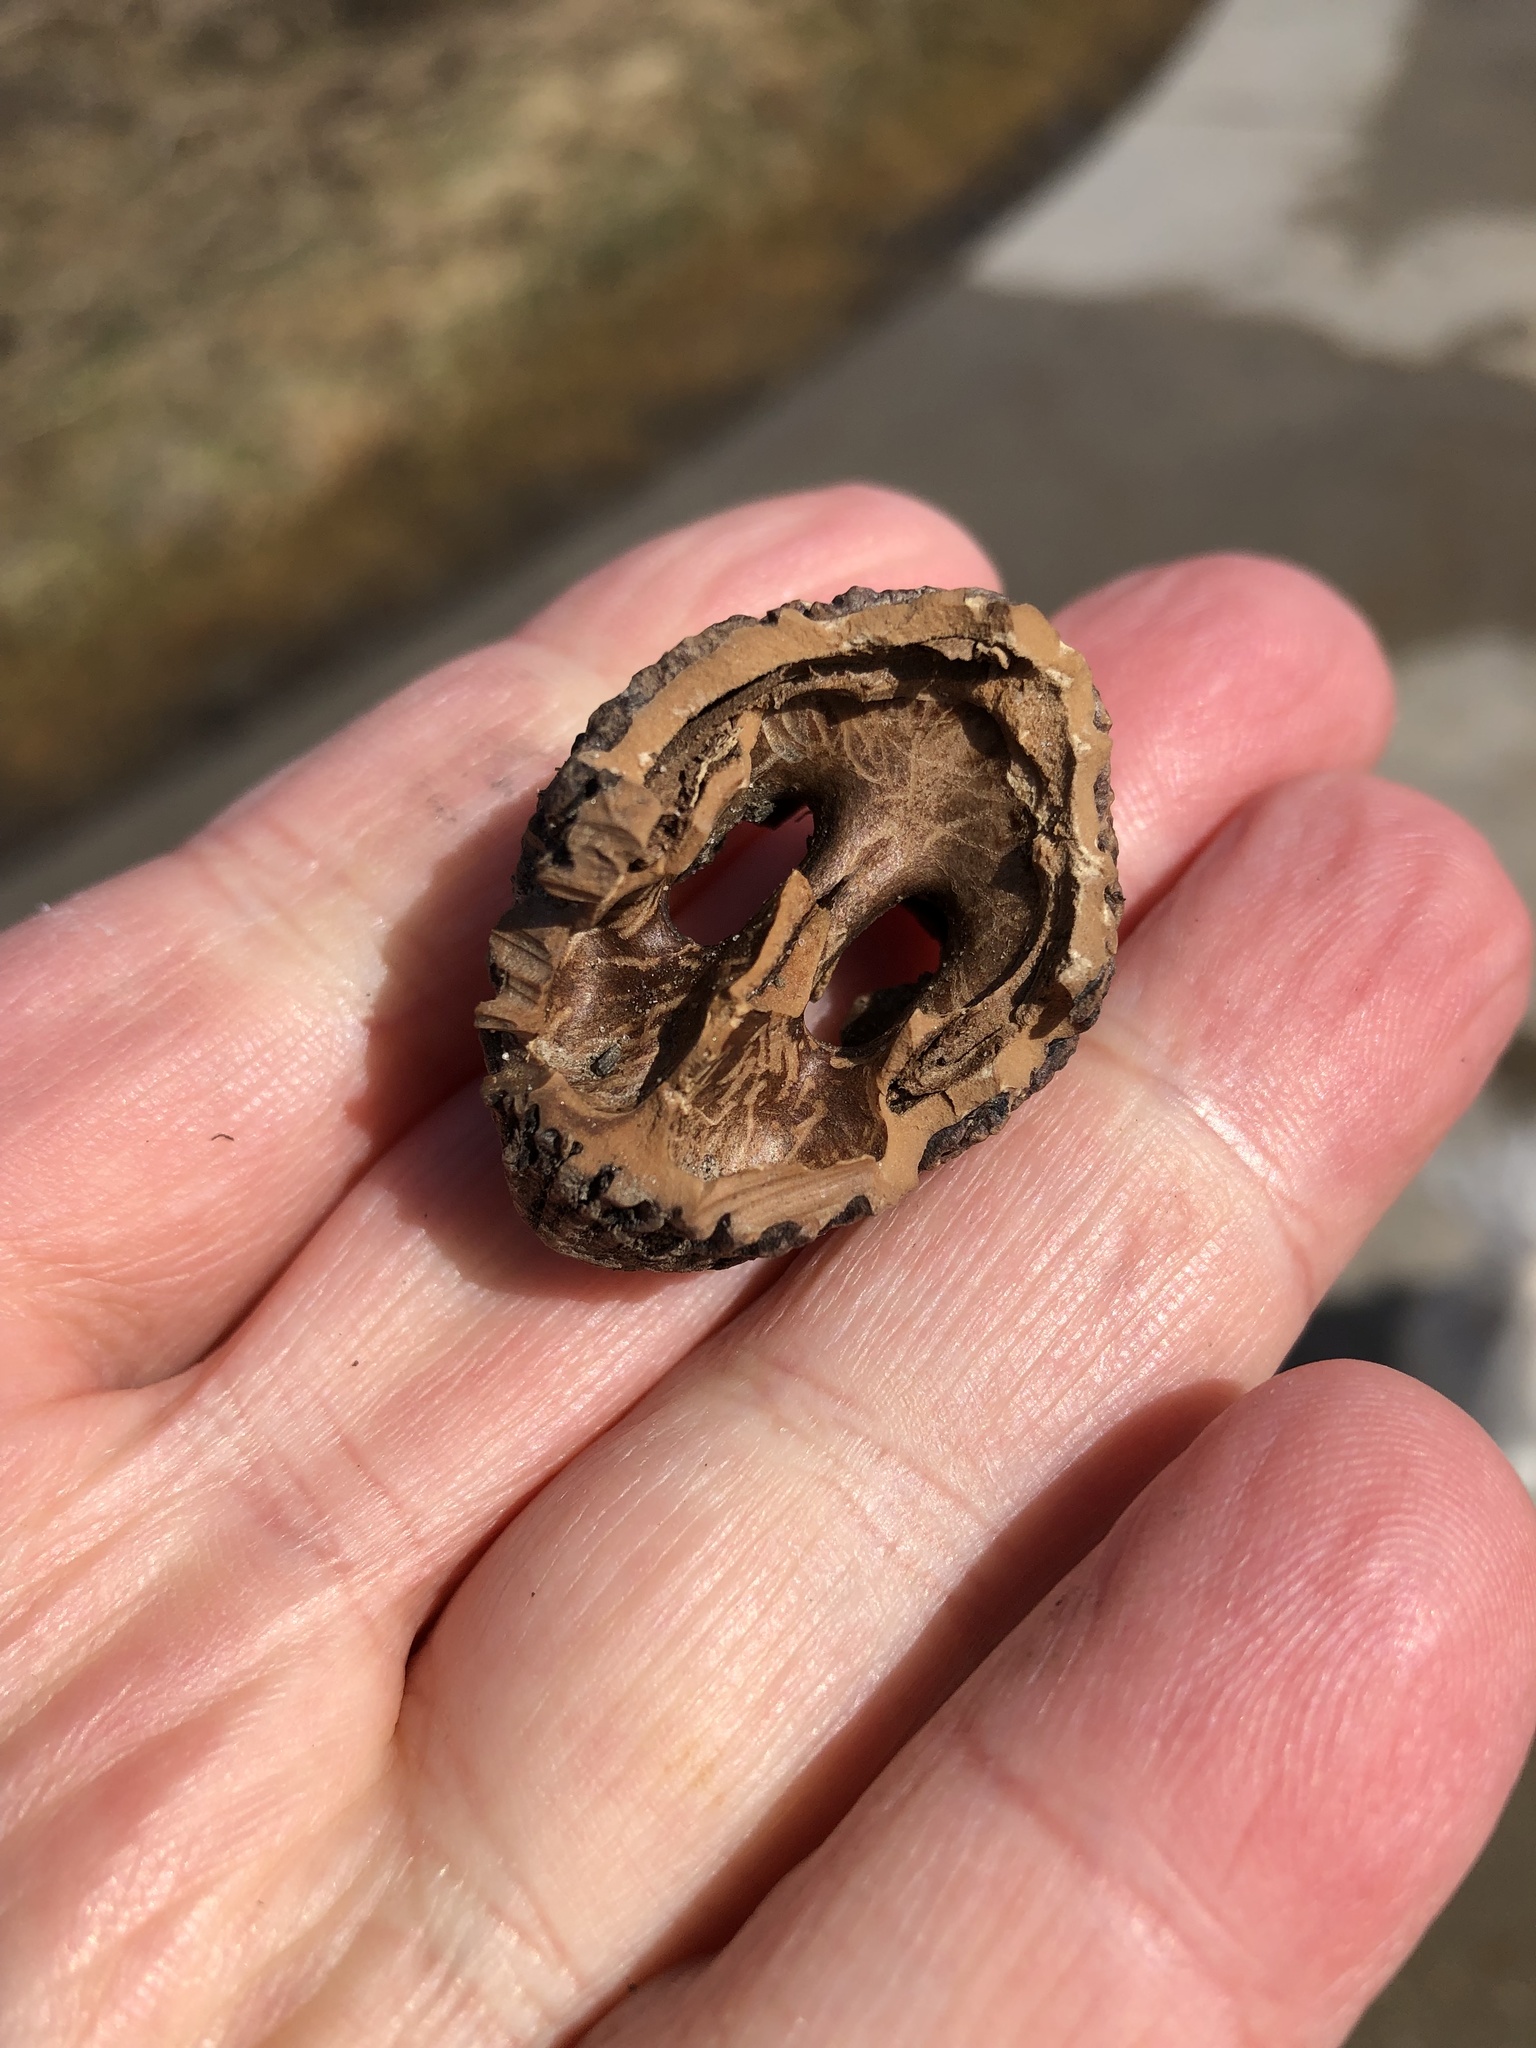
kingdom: Plantae
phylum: Tracheophyta
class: Magnoliopsida
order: Fagales
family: Juglandaceae
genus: Juglans
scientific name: Juglans nigra
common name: Black walnut
